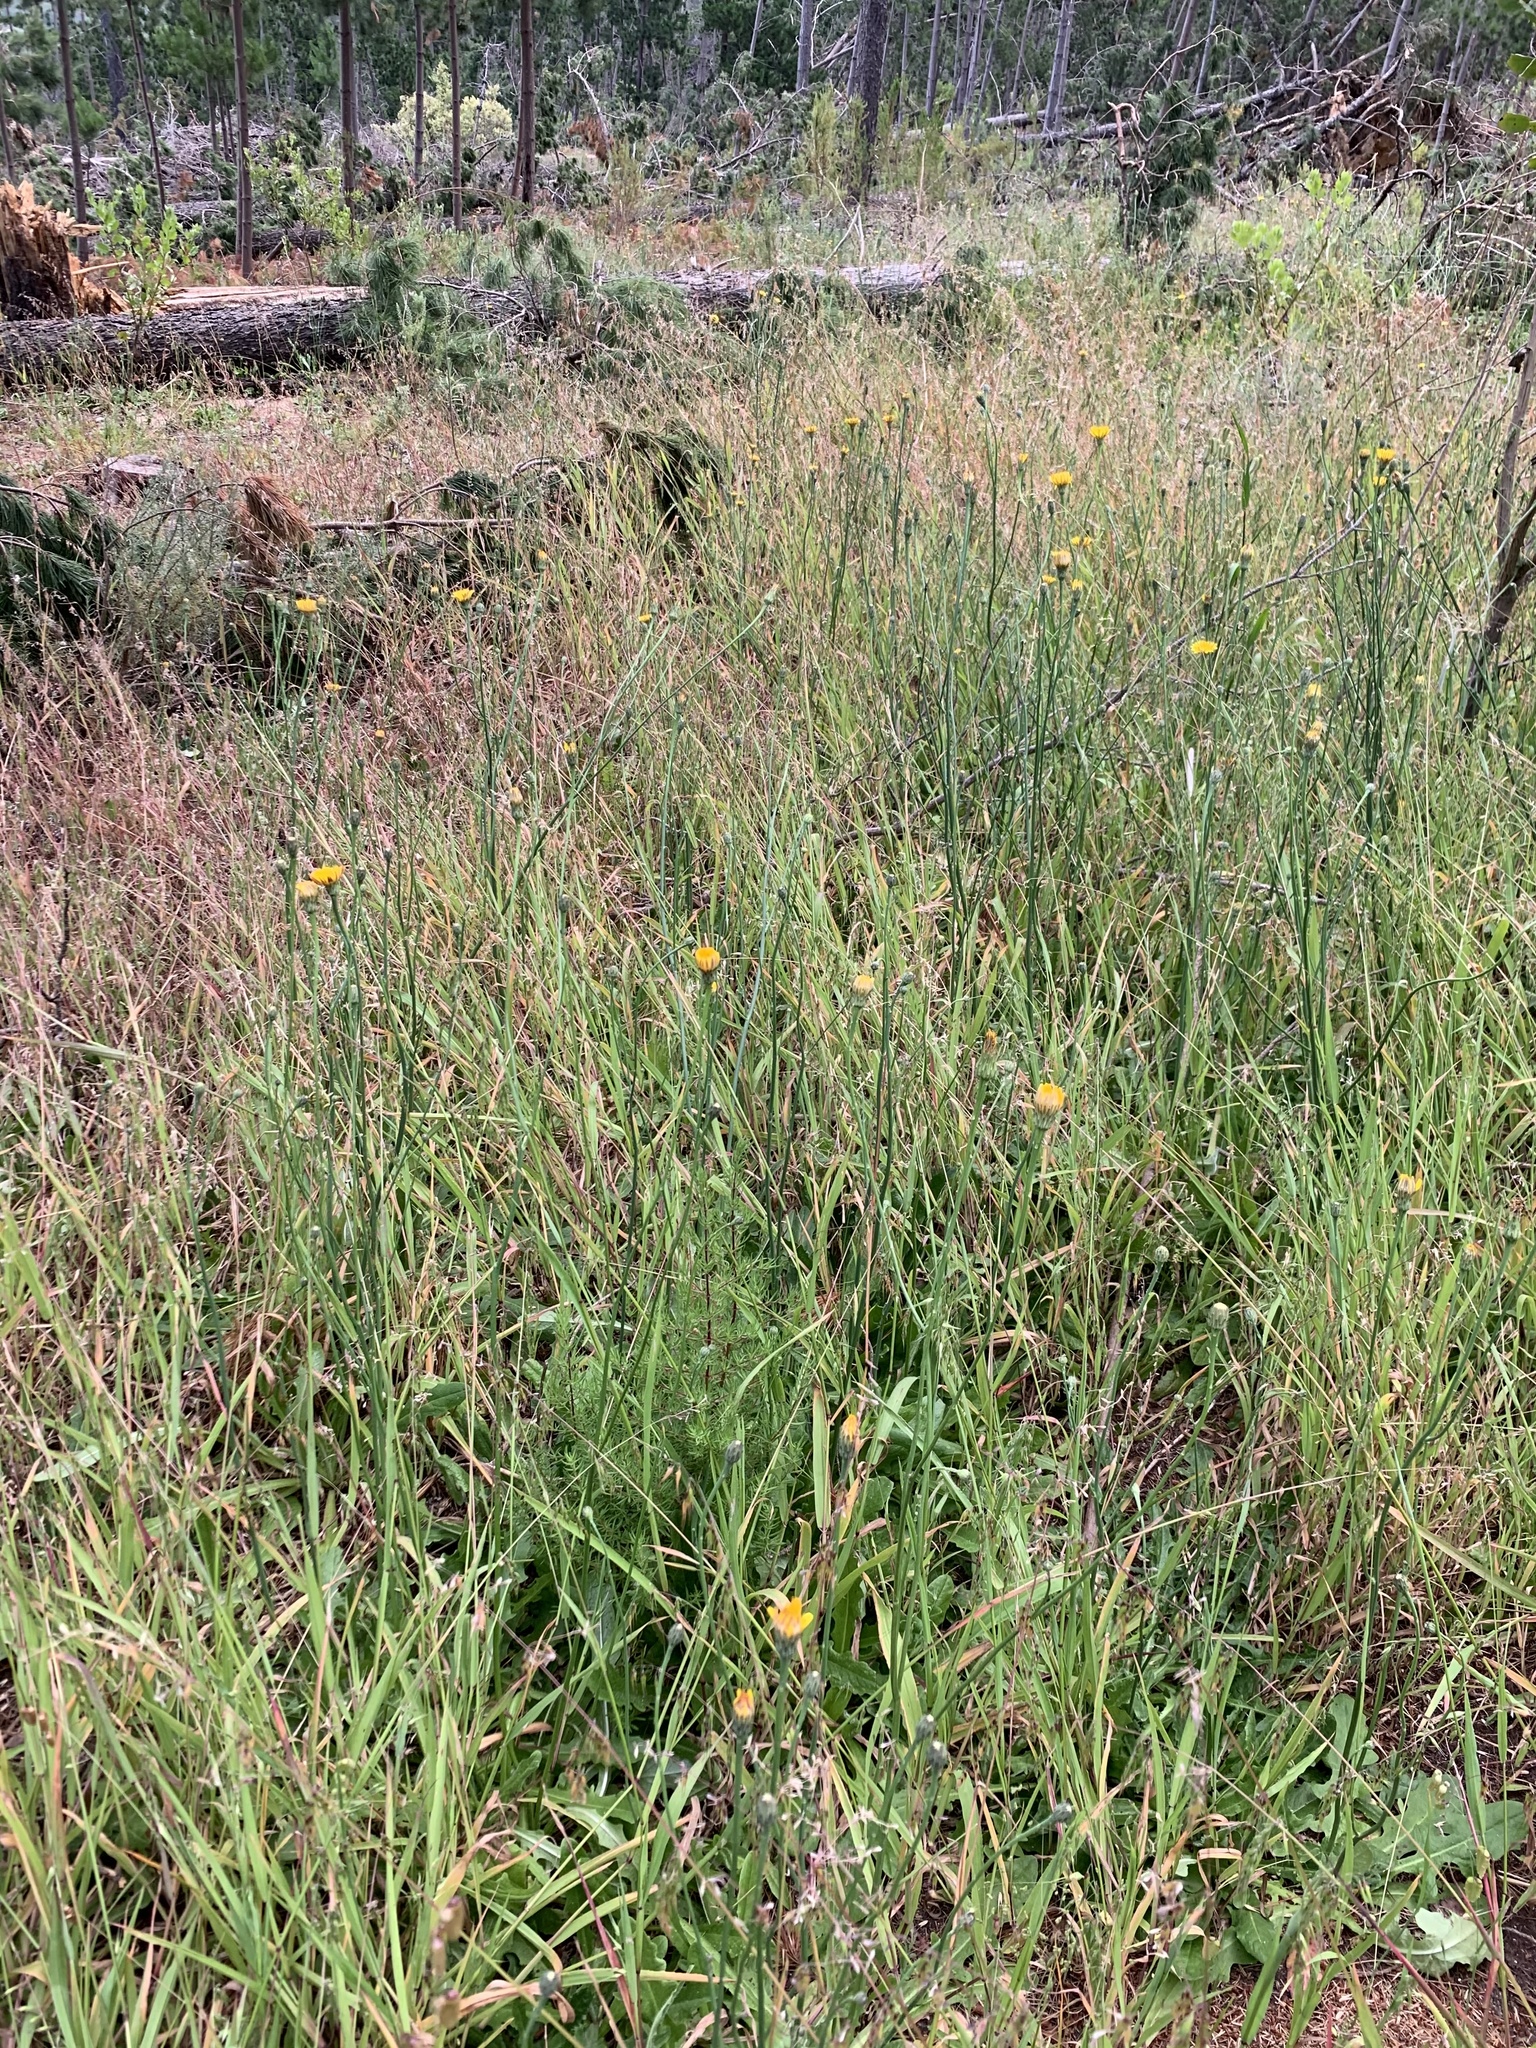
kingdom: Plantae
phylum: Tracheophyta
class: Magnoliopsida
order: Asterales
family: Asteraceae
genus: Hypochaeris
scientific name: Hypochaeris radicata
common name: Flatweed
